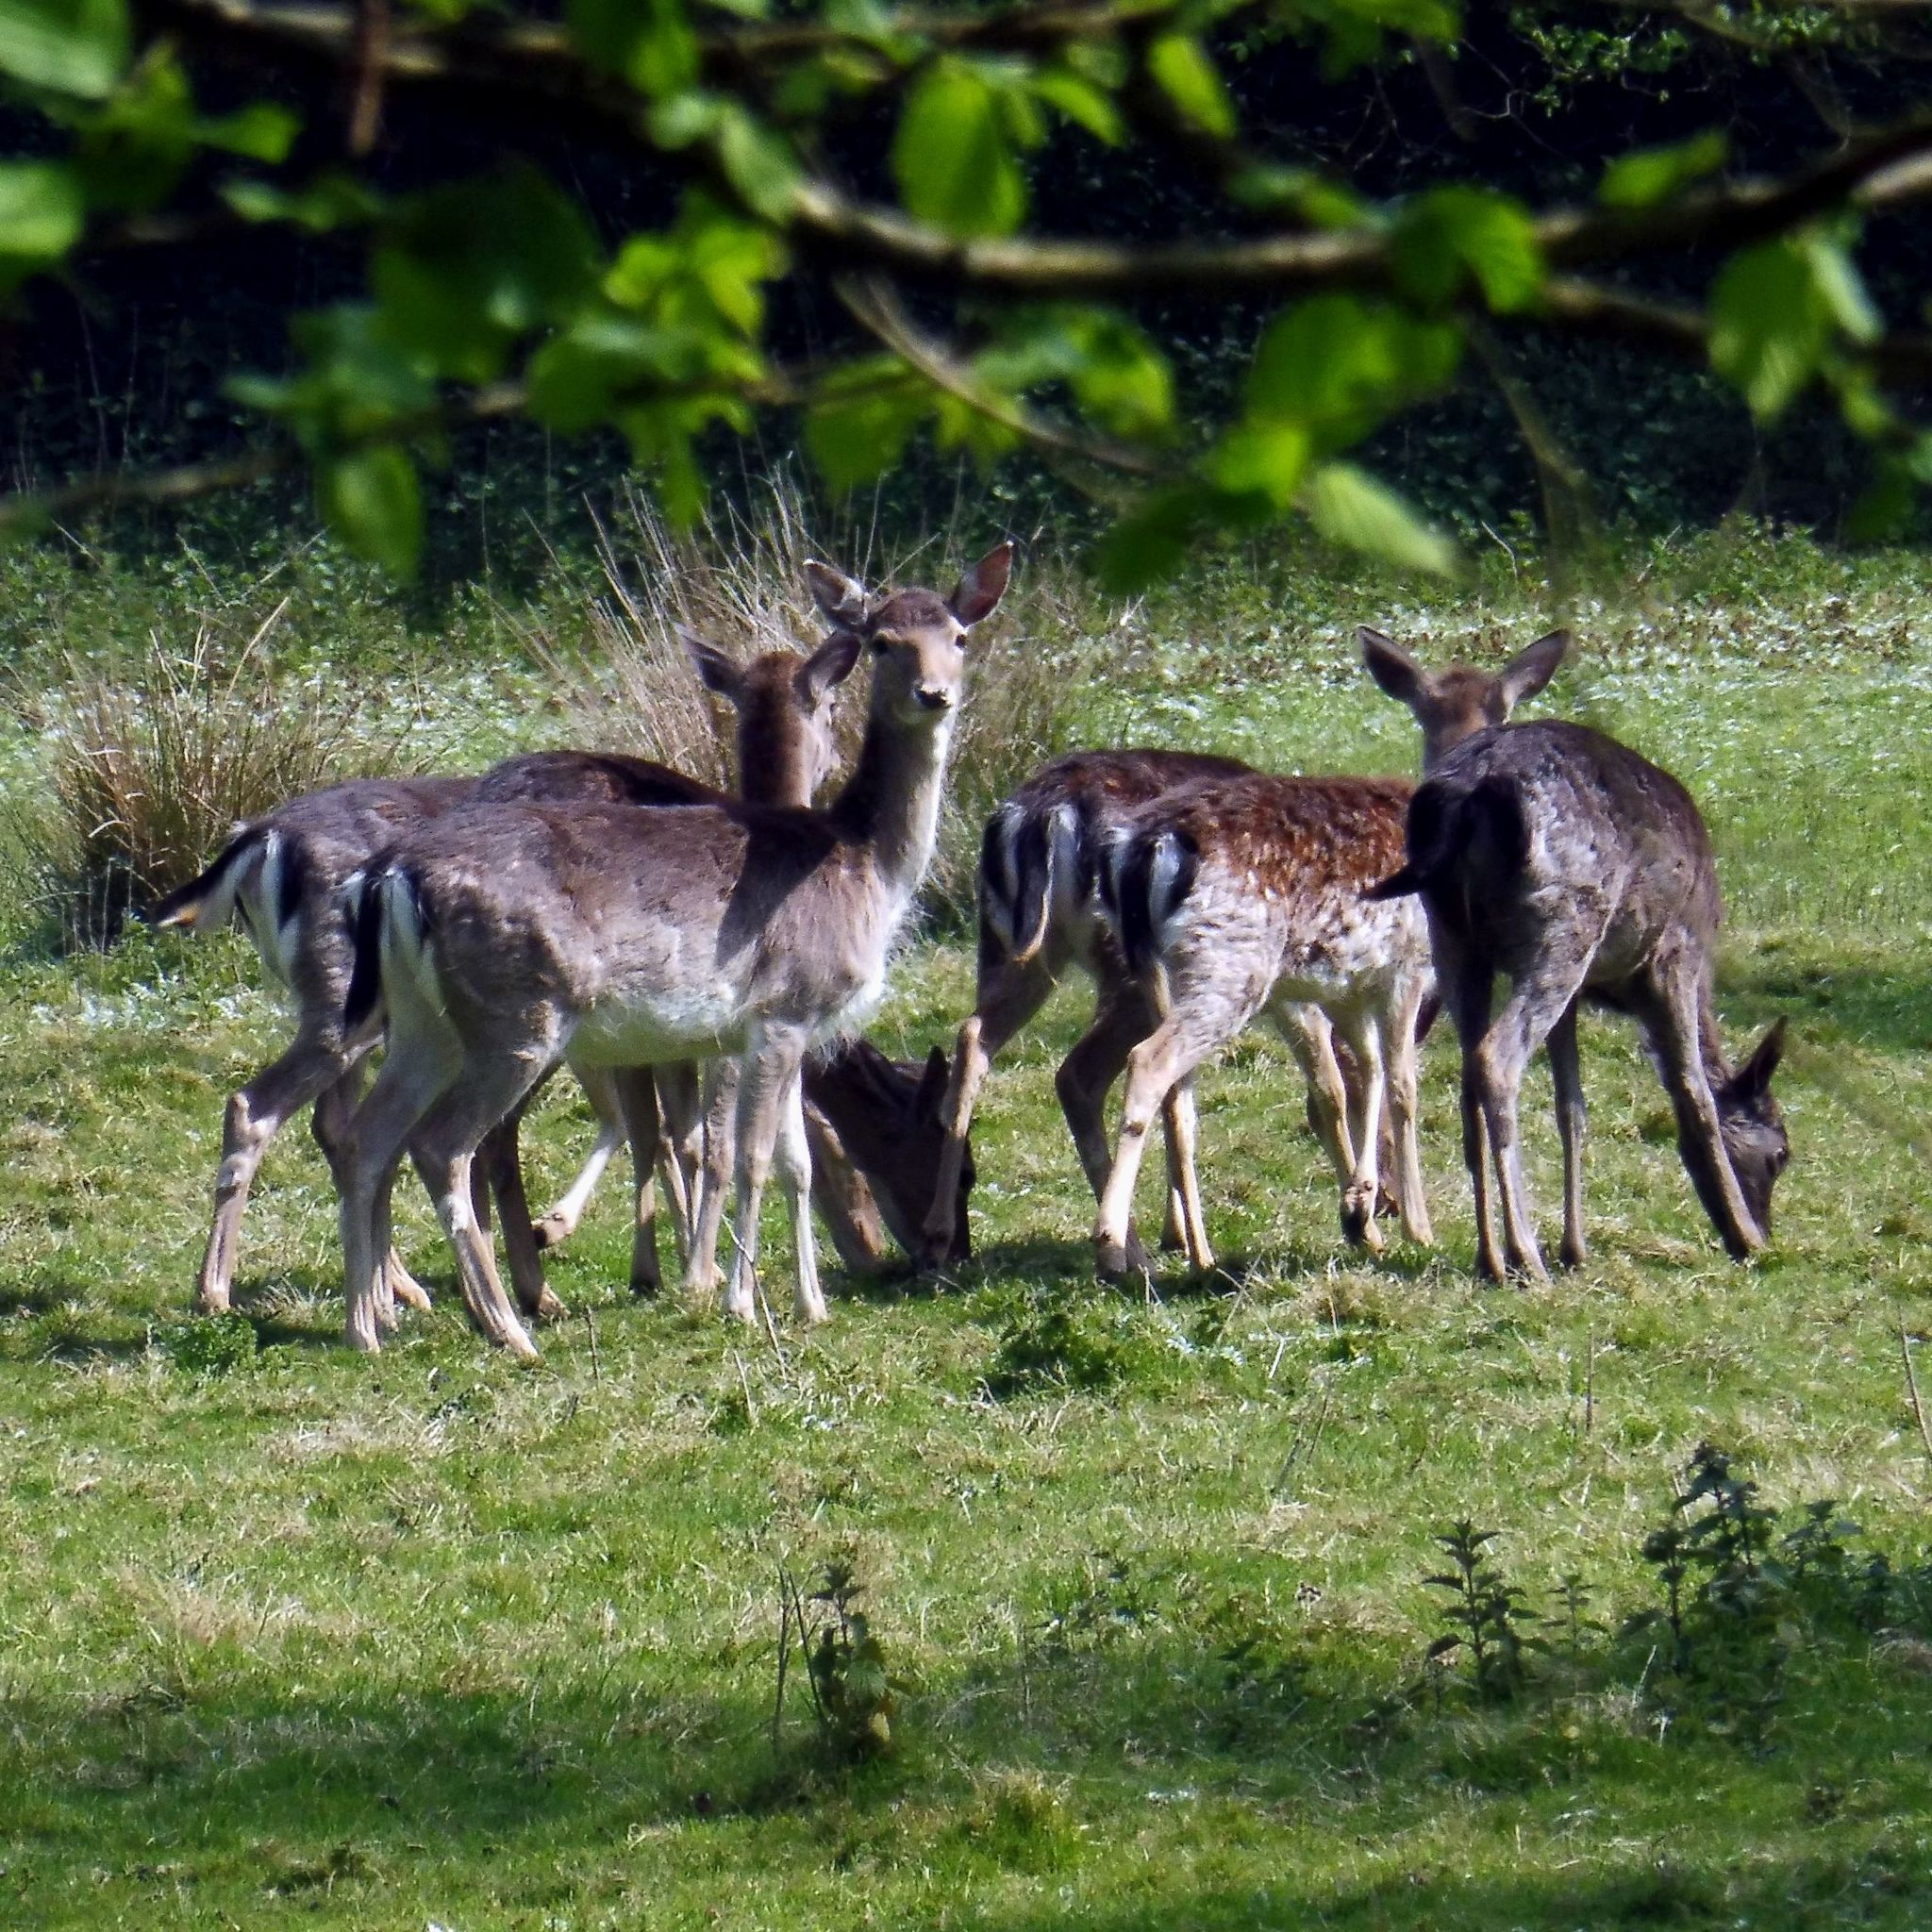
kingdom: Animalia
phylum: Chordata
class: Mammalia
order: Artiodactyla
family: Cervidae
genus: Dama
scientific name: Dama dama
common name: Fallow deer
